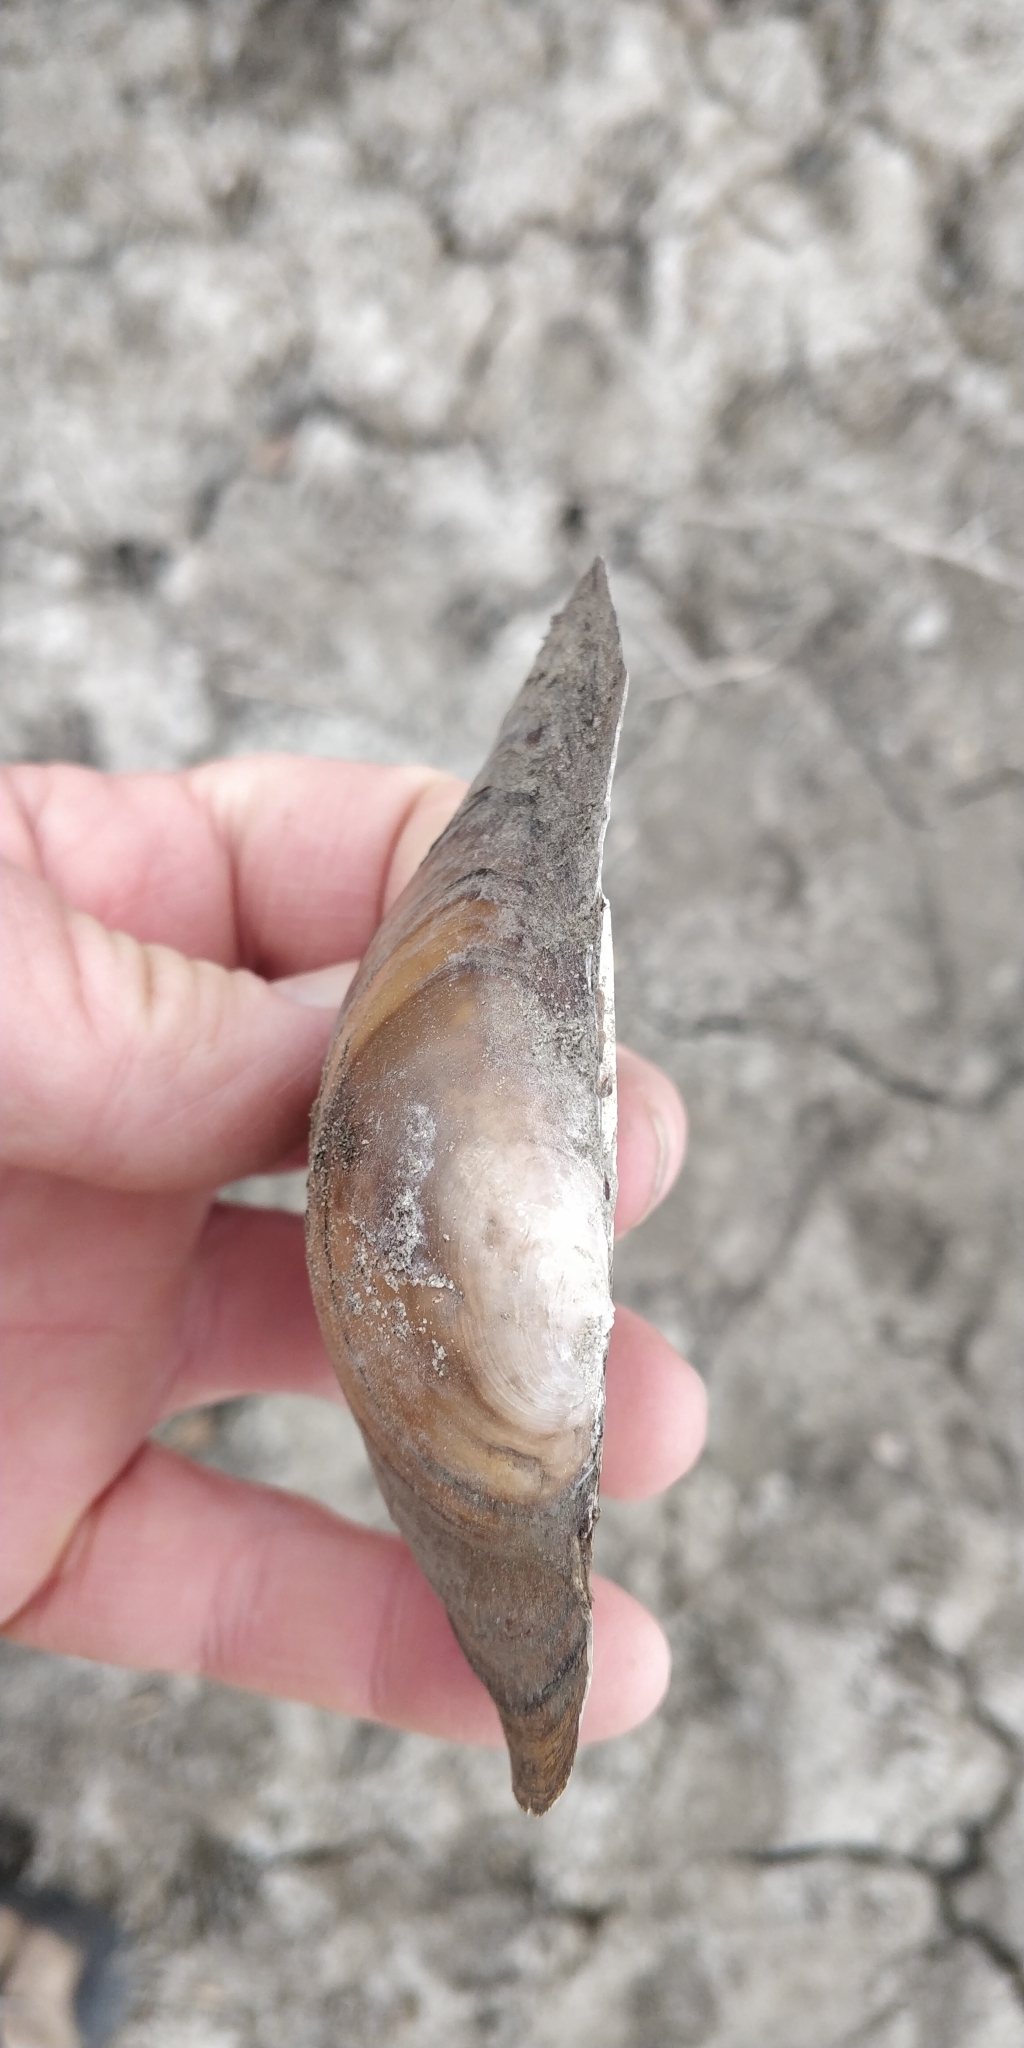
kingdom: Animalia
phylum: Mollusca
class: Bivalvia
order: Unionida
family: Unionidae
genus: Pyganodon
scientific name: Pyganodon grandis
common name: Giant floater
